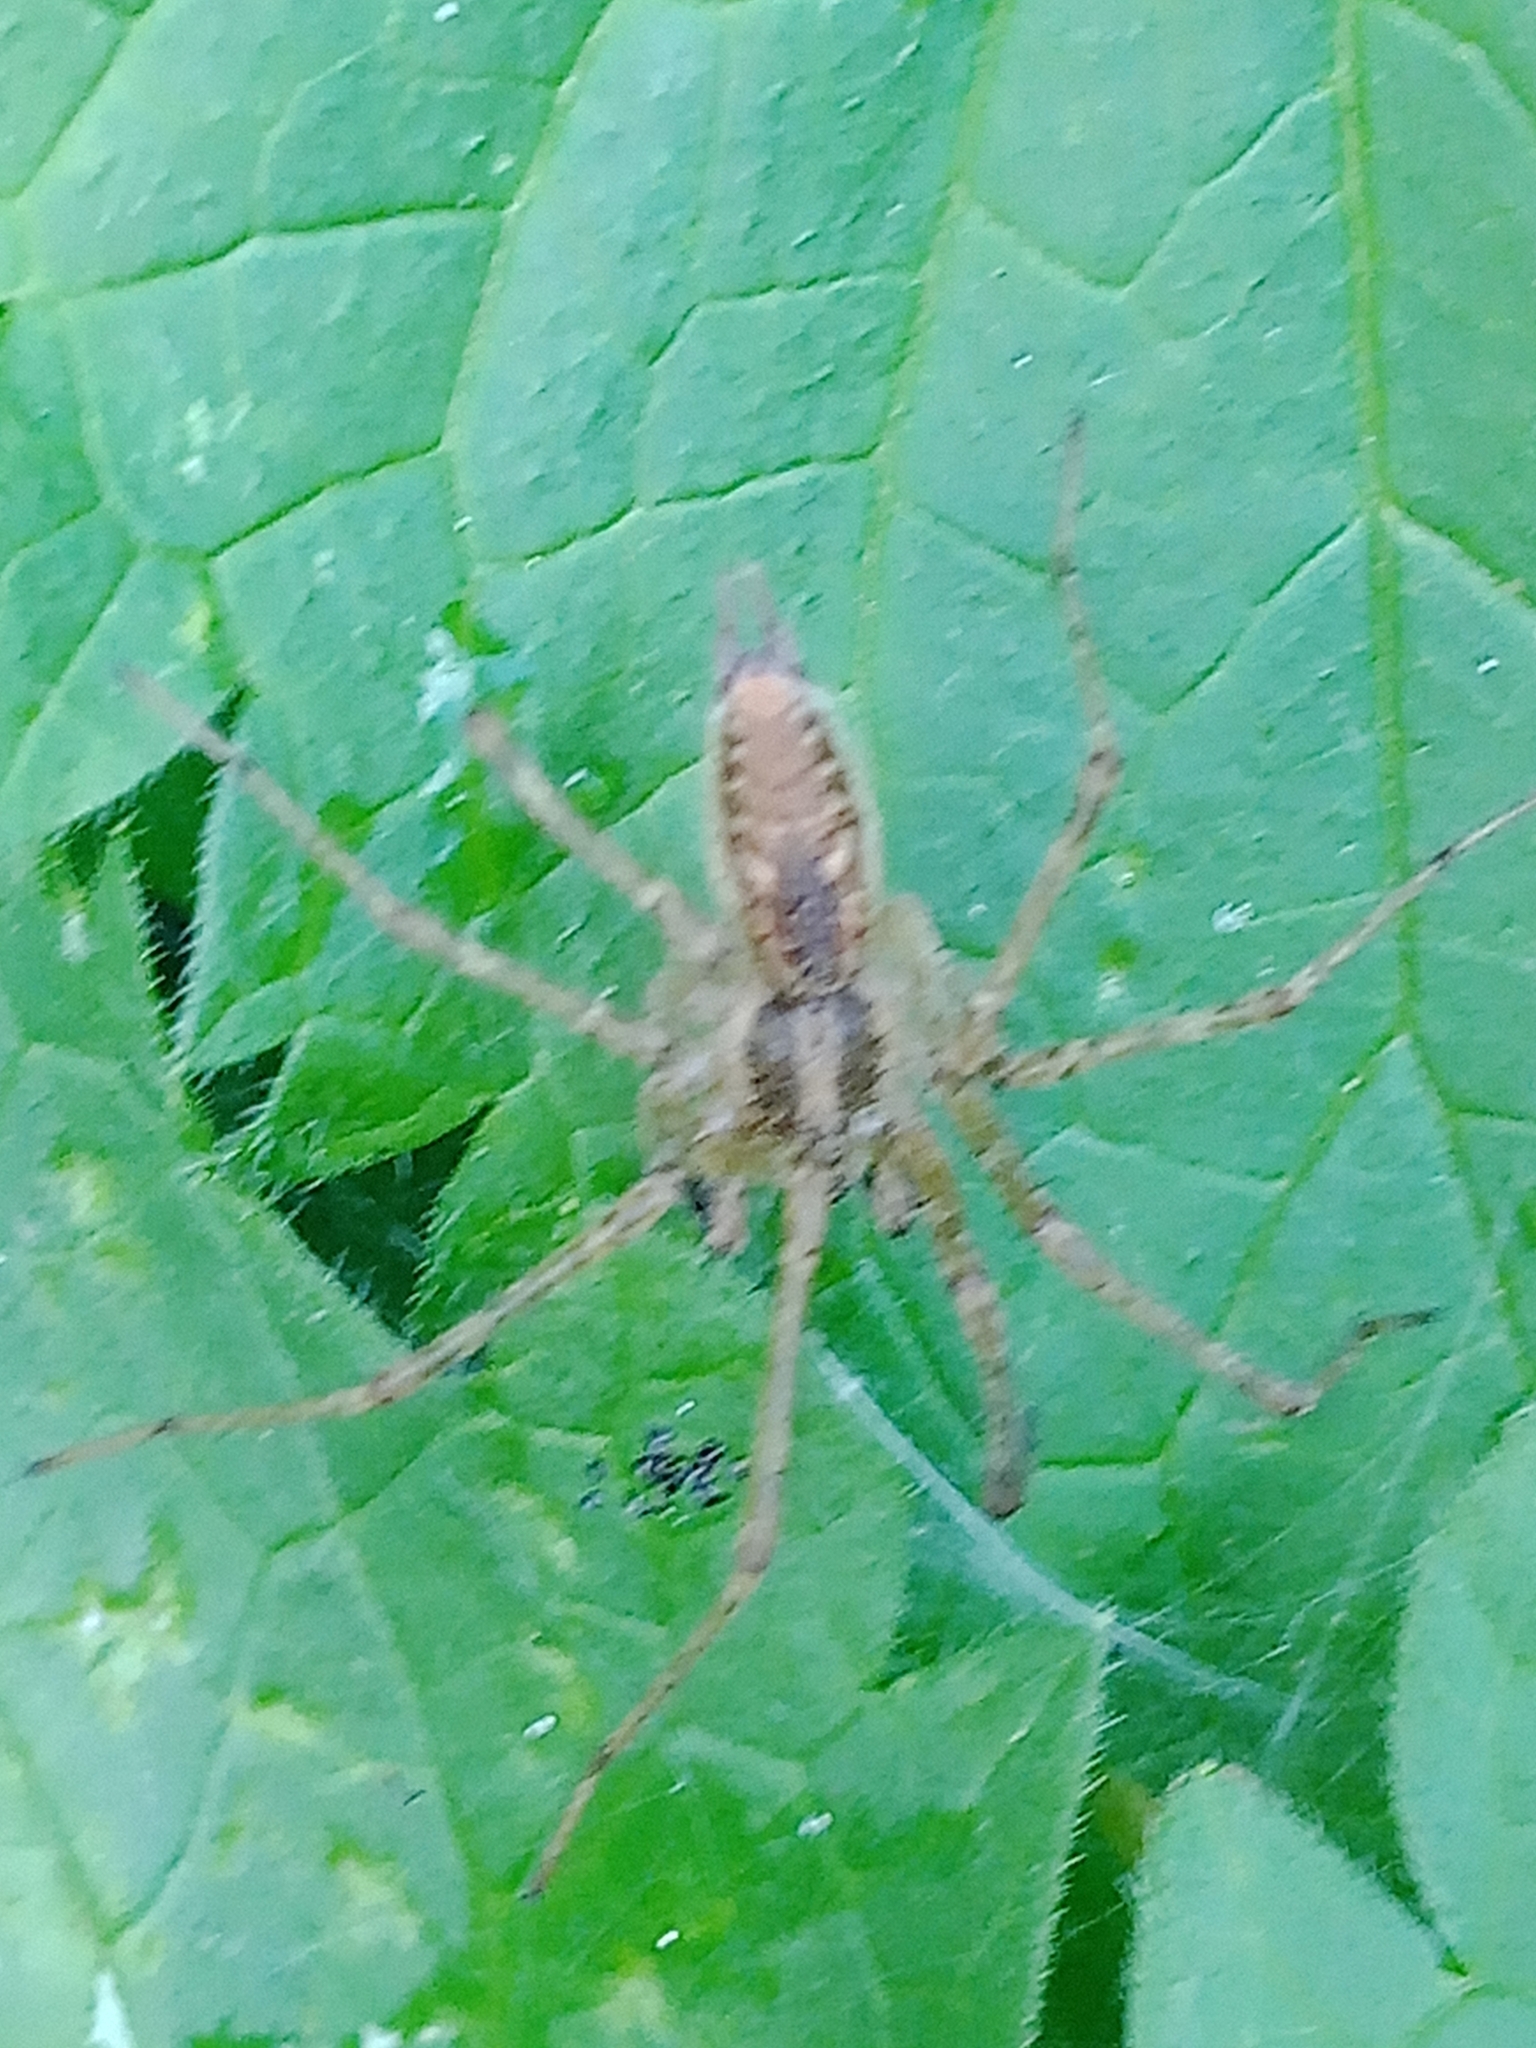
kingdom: Animalia
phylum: Arthropoda
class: Arachnida
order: Araneae
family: Agelenidae
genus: Allagelena
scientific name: Allagelena gracilens
